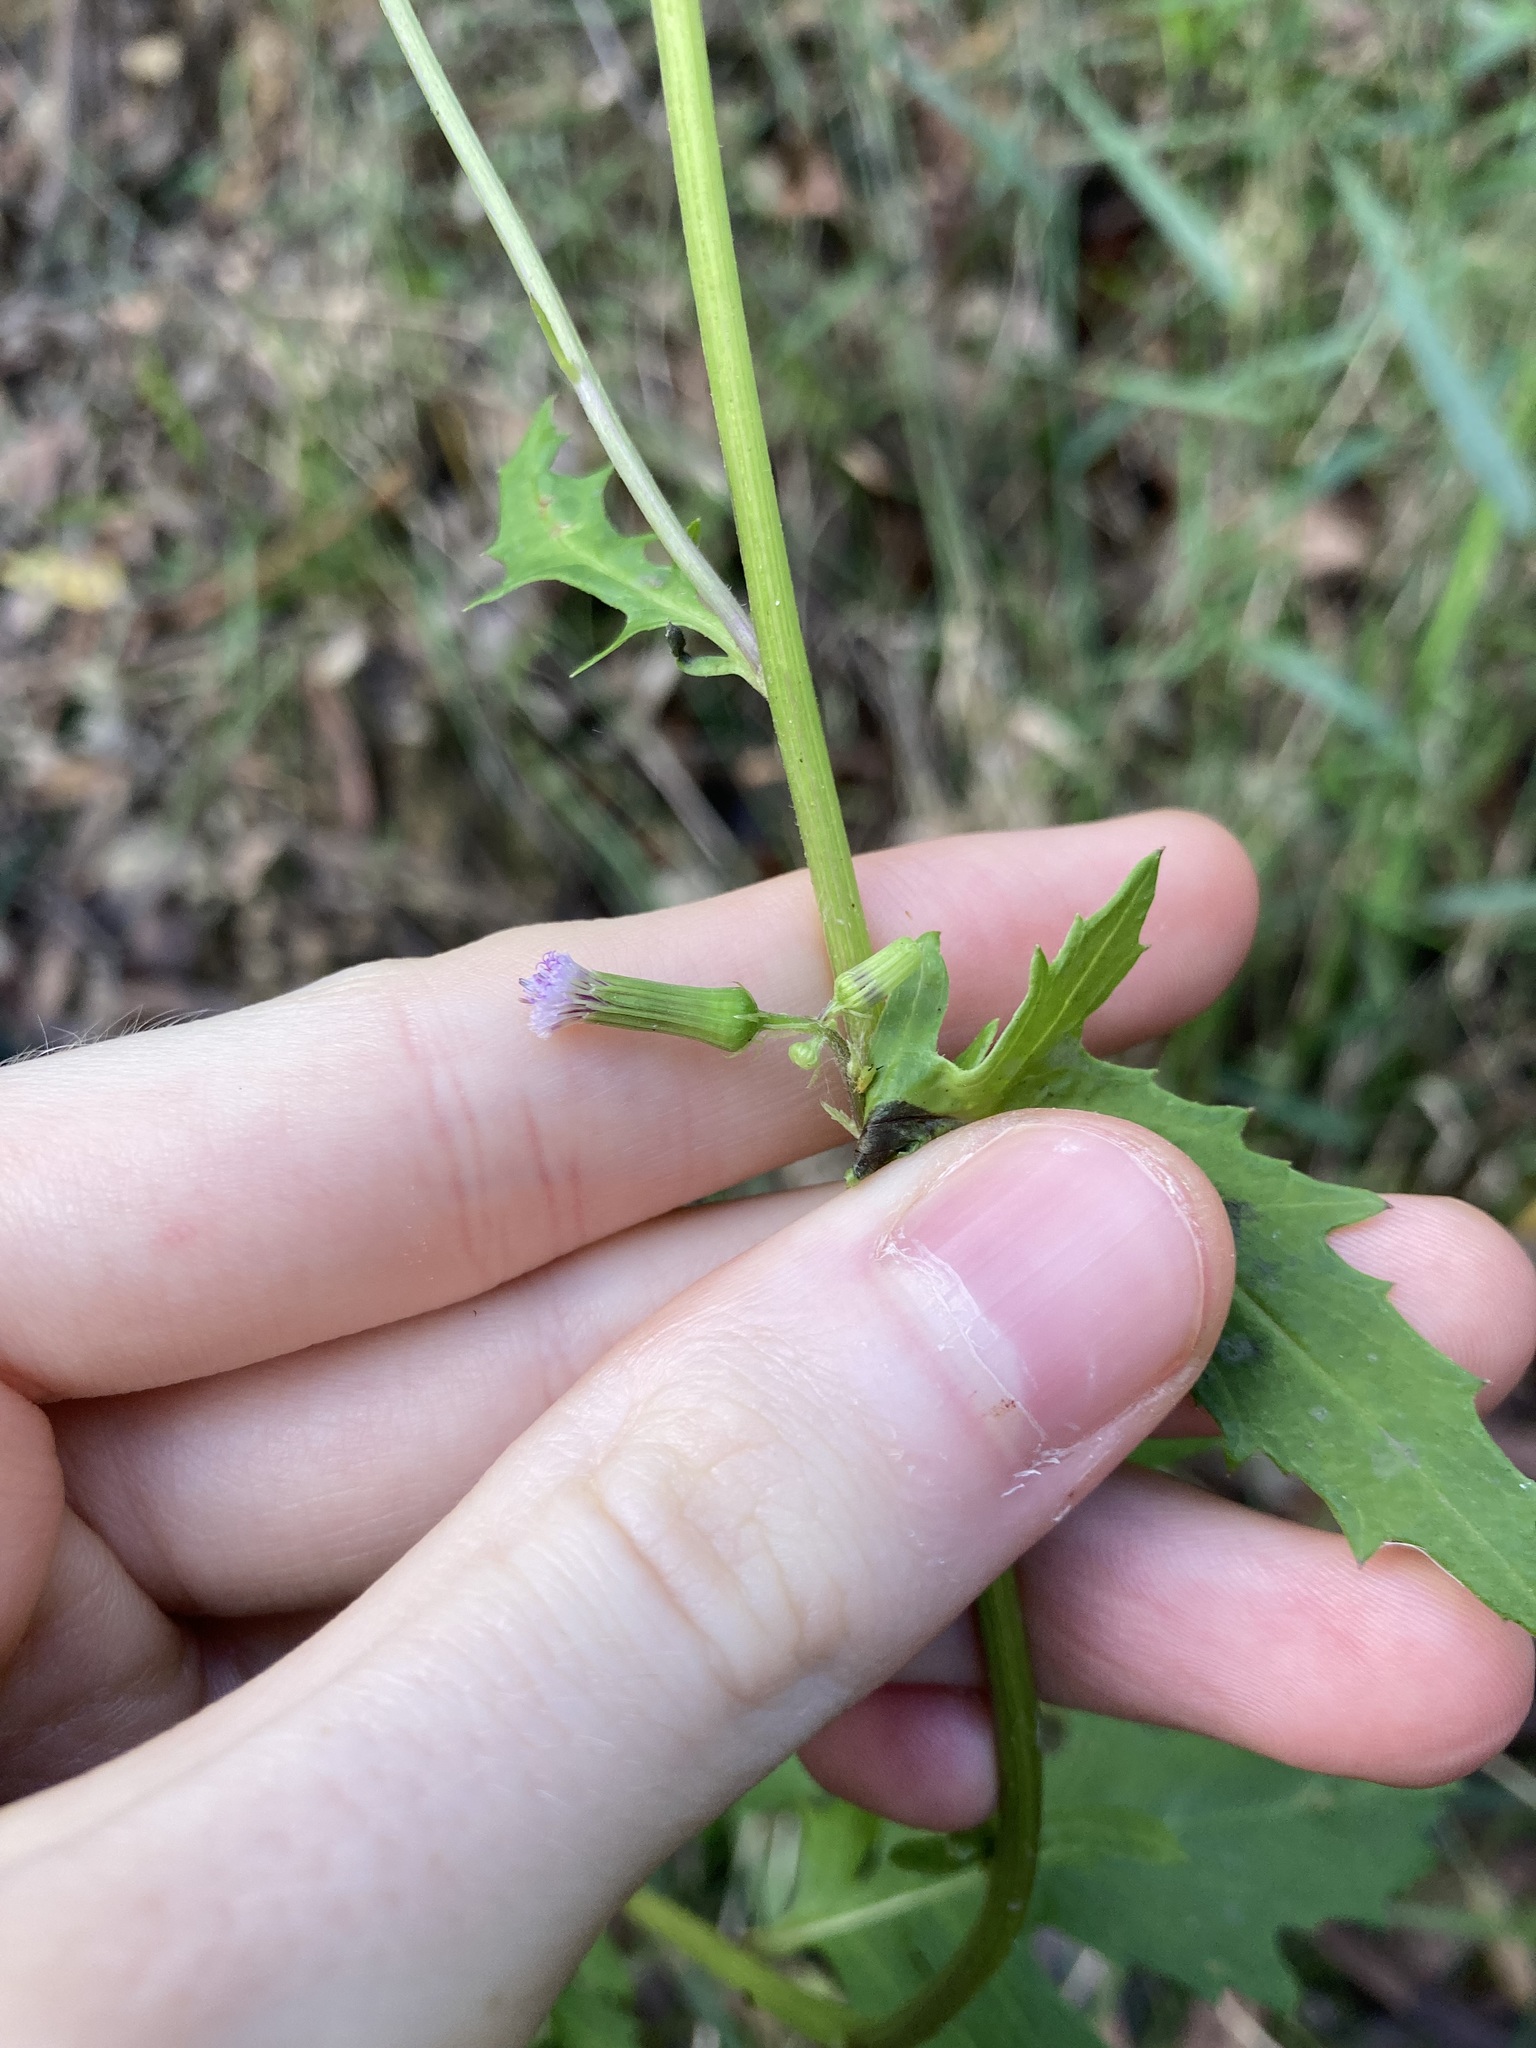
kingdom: Plantae
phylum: Tracheophyta
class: Magnoliopsida
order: Asterales
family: Asteraceae
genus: Erechtites
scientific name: Erechtites valerianifolius
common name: Tropical burnweed
